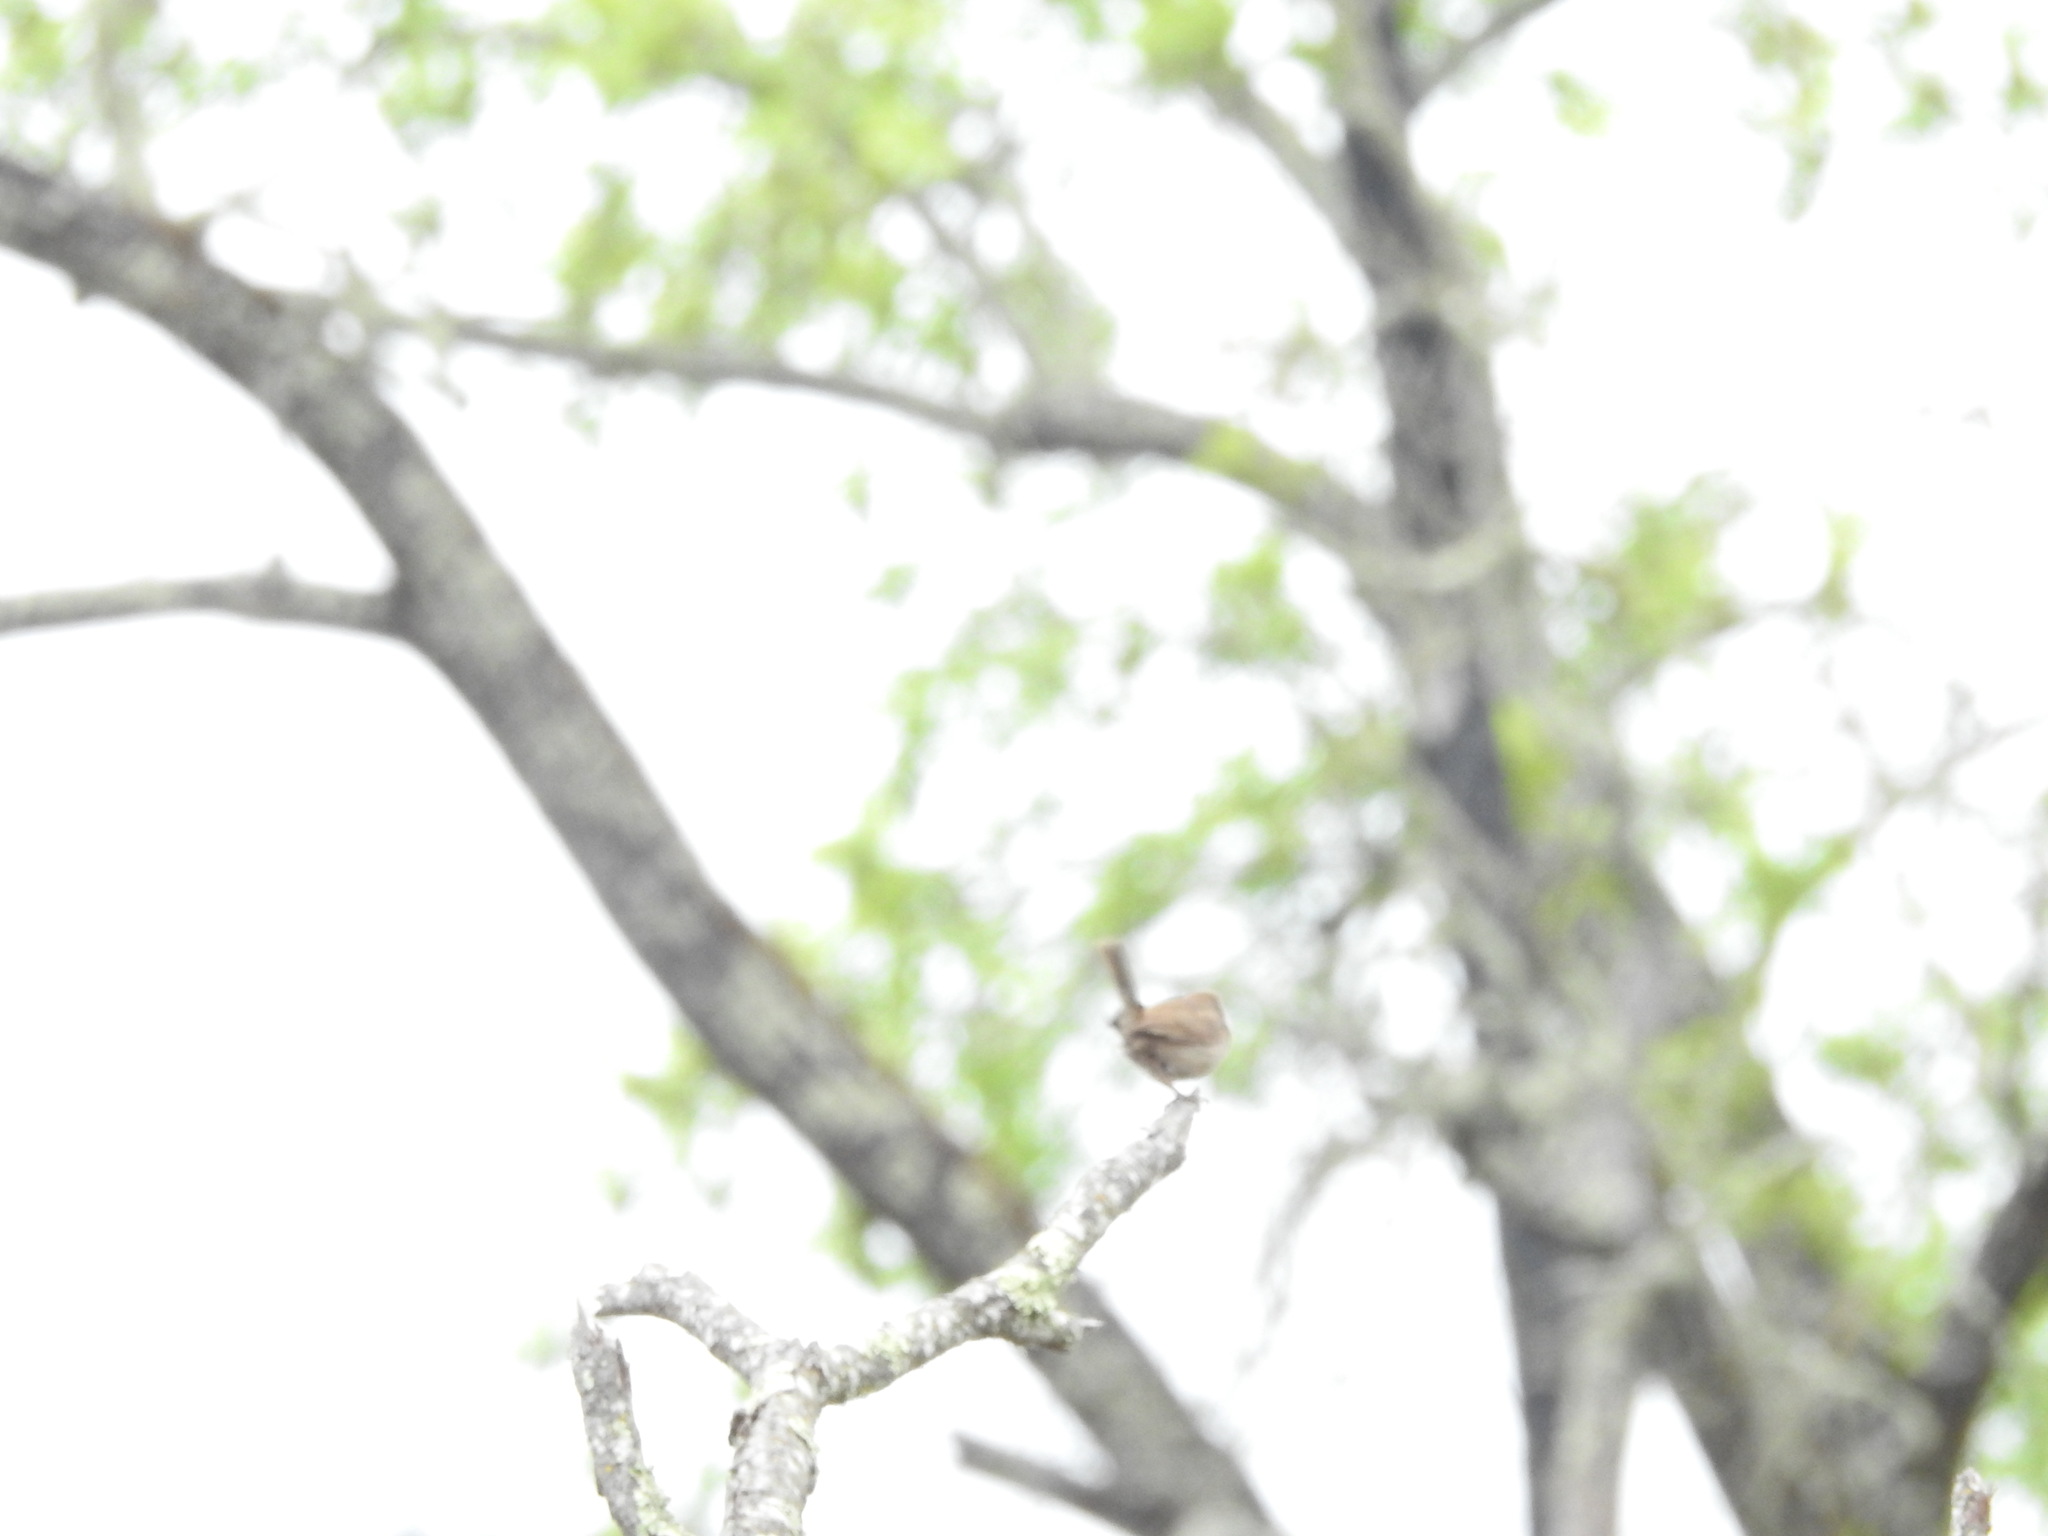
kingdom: Animalia
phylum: Chordata
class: Aves
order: Passeriformes
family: Troglodytidae
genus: Troglodytes
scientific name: Troglodytes aedon
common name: House wren
